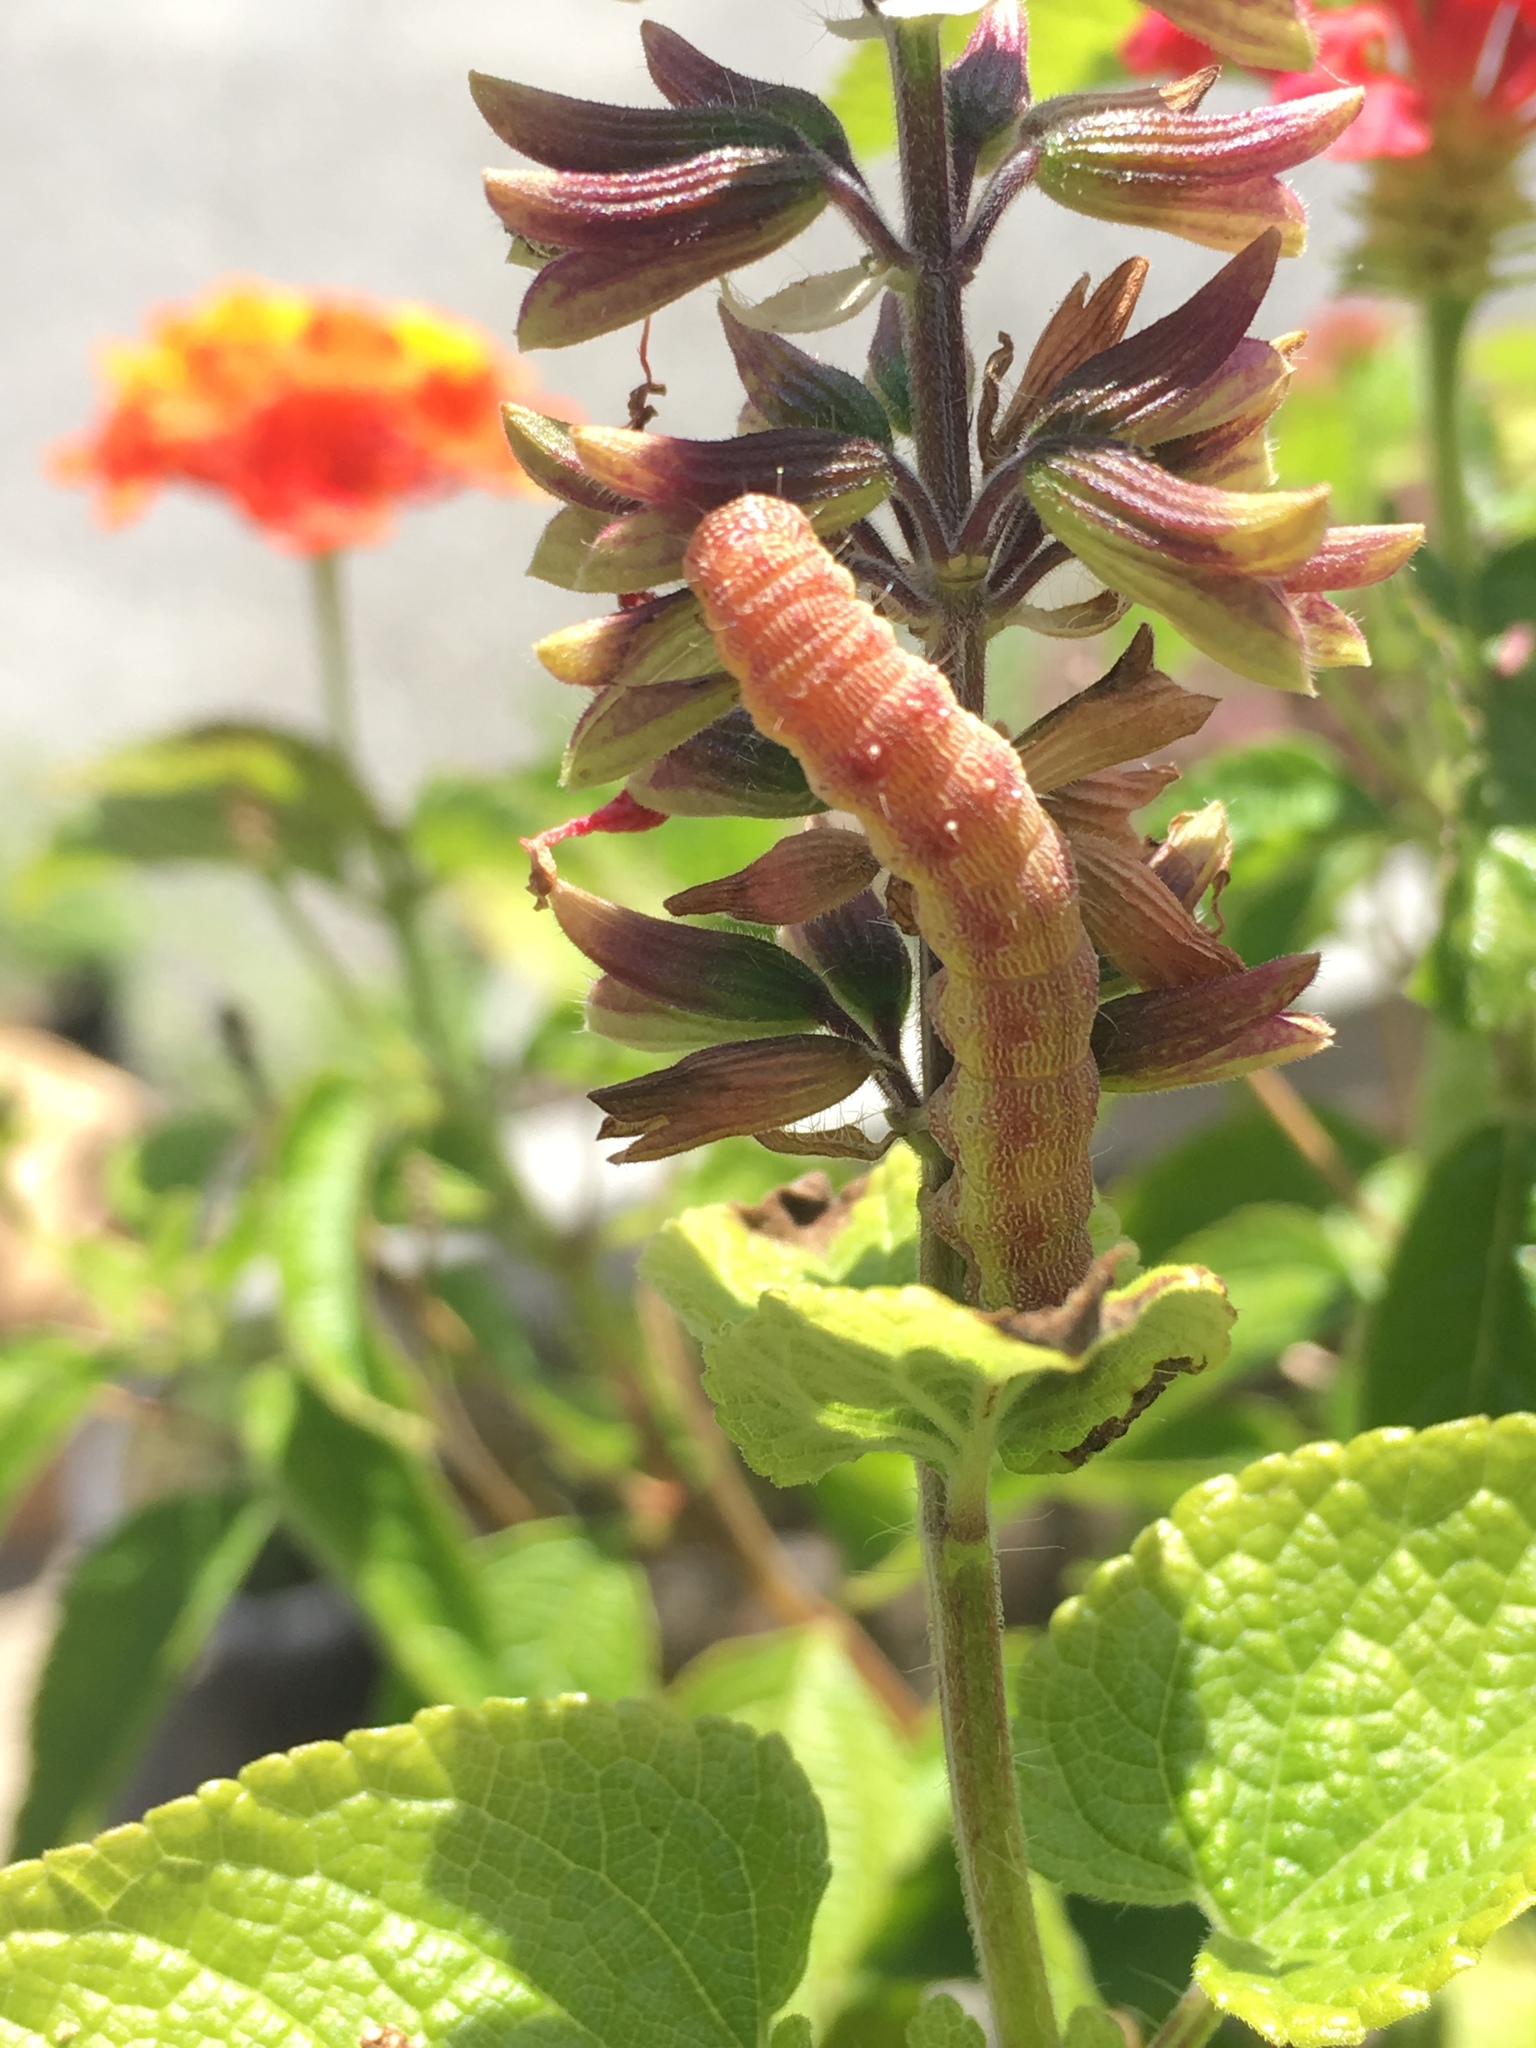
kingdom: Animalia
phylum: Arthropoda
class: Insecta
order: Lepidoptera
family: Noctuidae
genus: Chloridea
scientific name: Chloridea virescens
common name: Tobacco budworm
